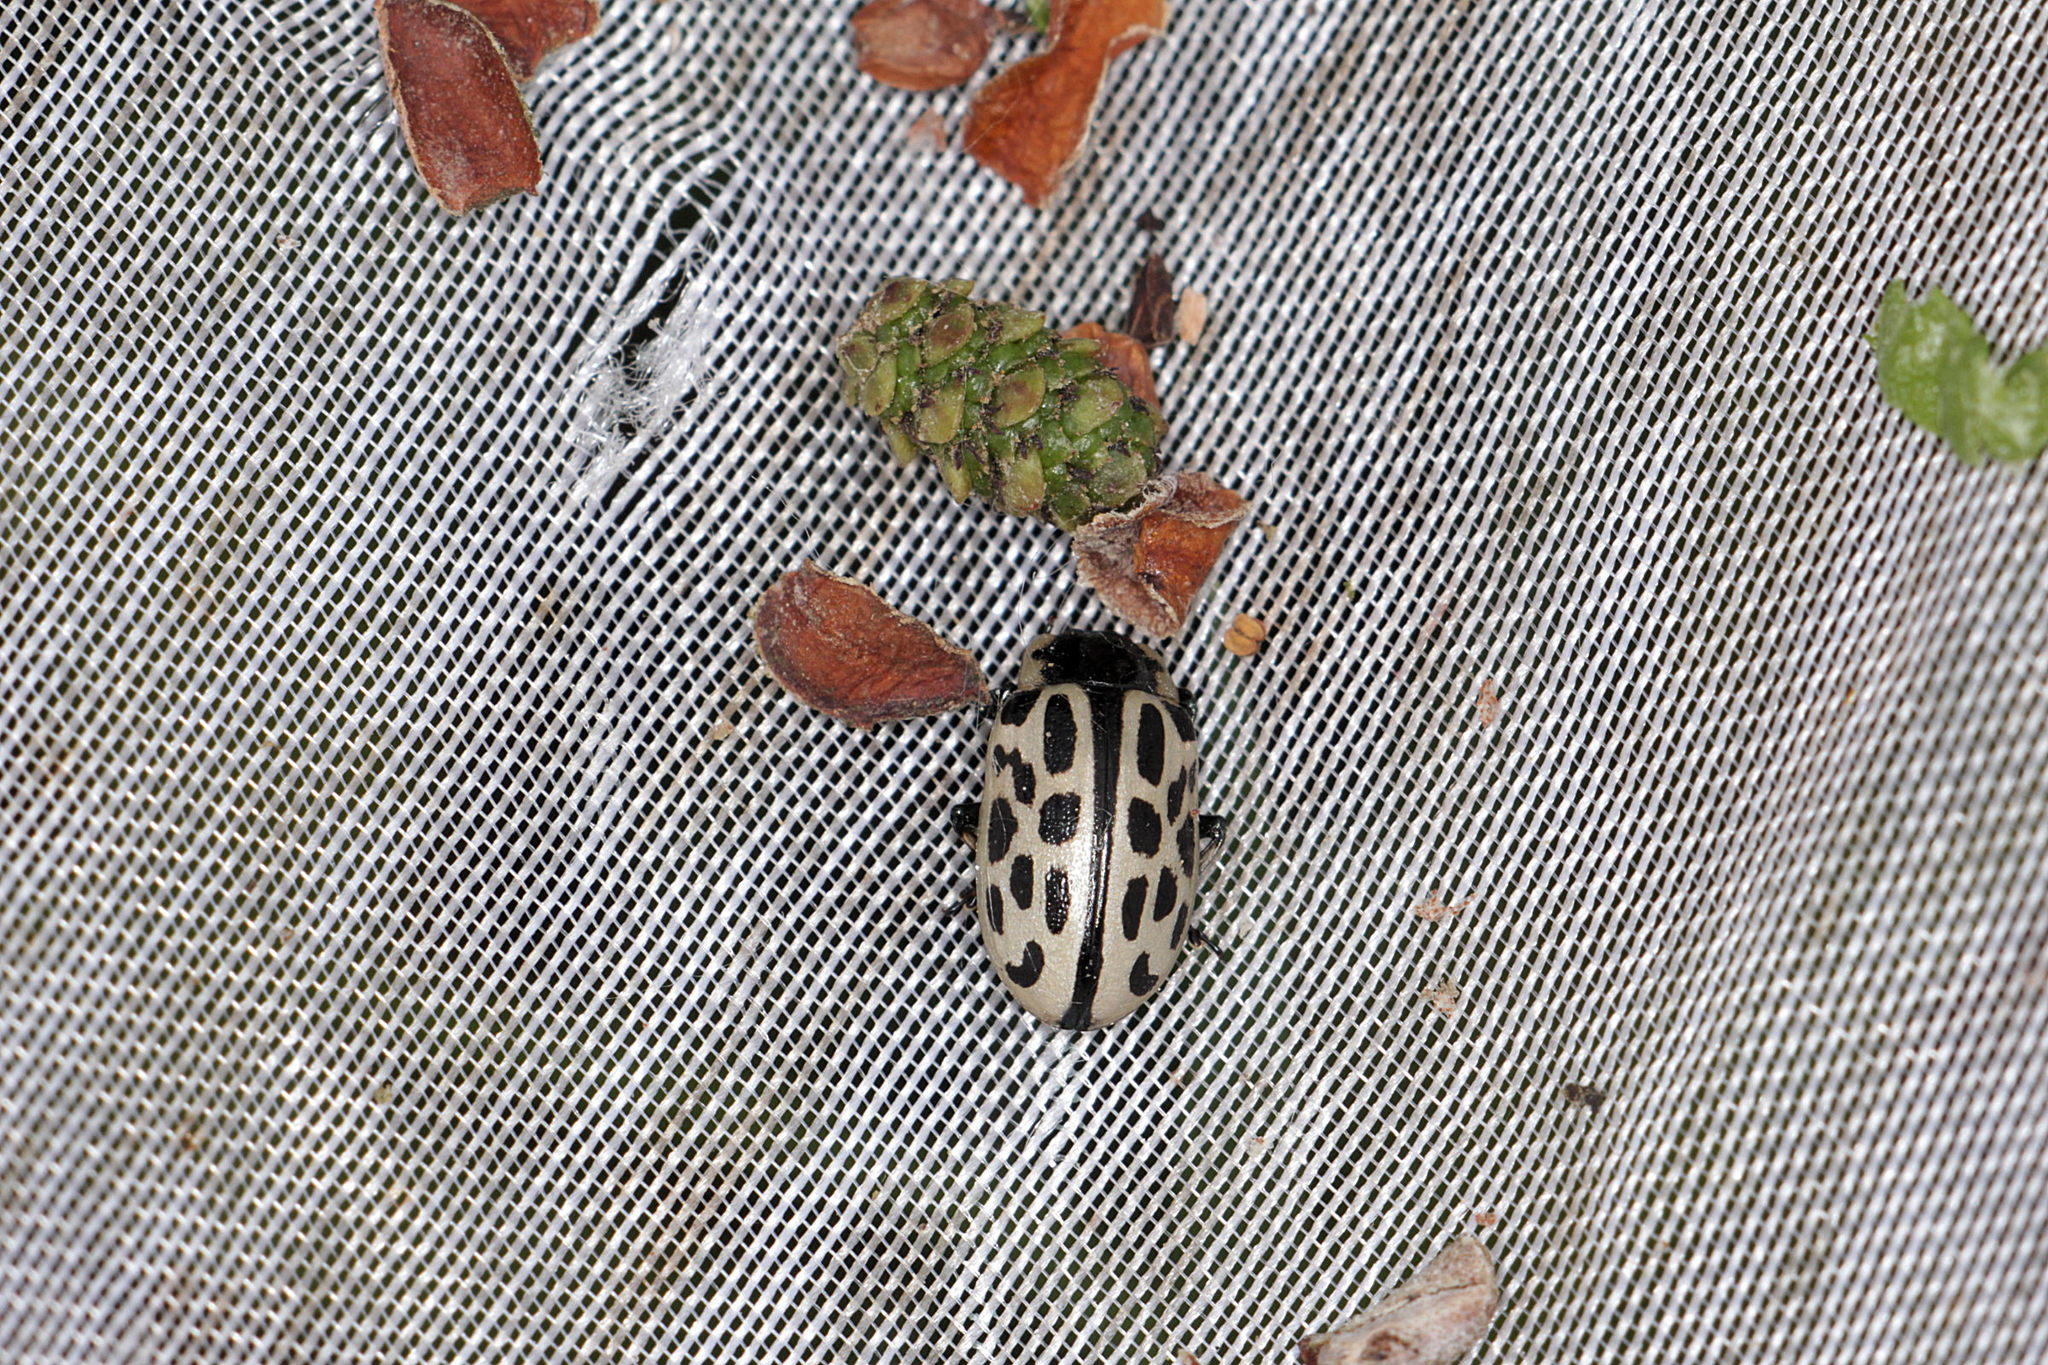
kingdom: Animalia
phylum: Arthropoda
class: Insecta
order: Coleoptera
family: Chrysomelidae
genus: Chrysomela
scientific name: Chrysomela vigintipunctata
